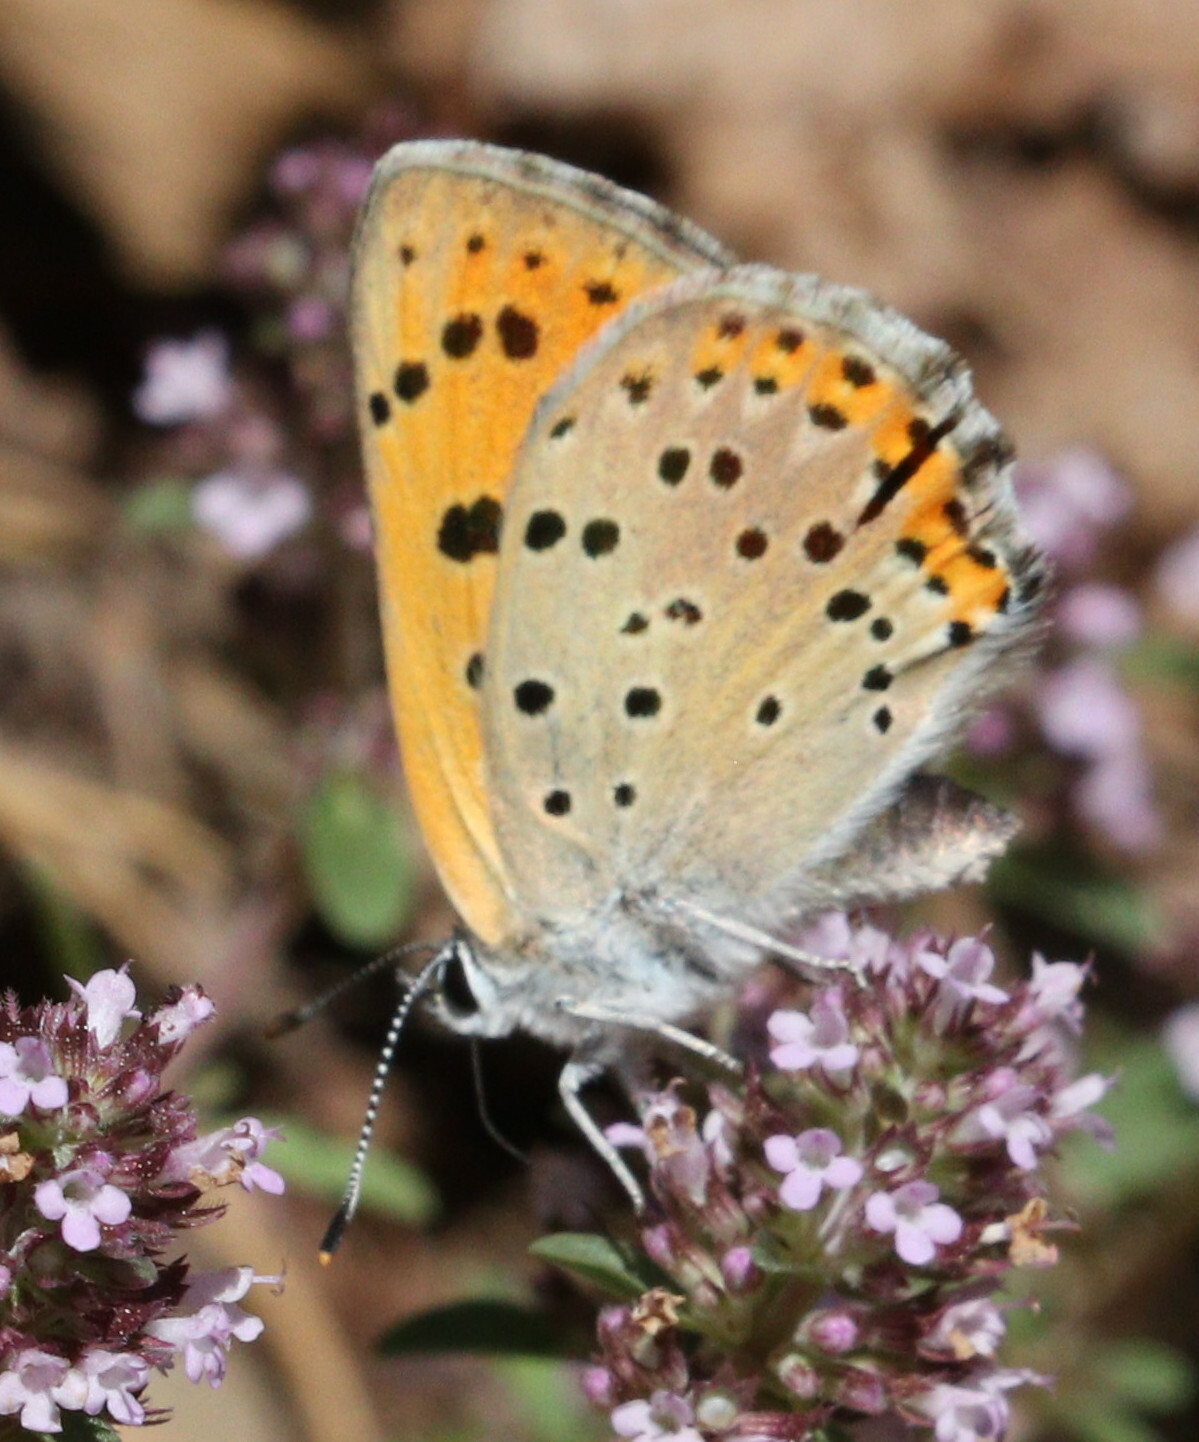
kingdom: Animalia
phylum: Arthropoda
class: Insecta
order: Lepidoptera
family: Lycaenidae
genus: Lycaena
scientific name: Lycaena alciphron
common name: Purple-shot copper
